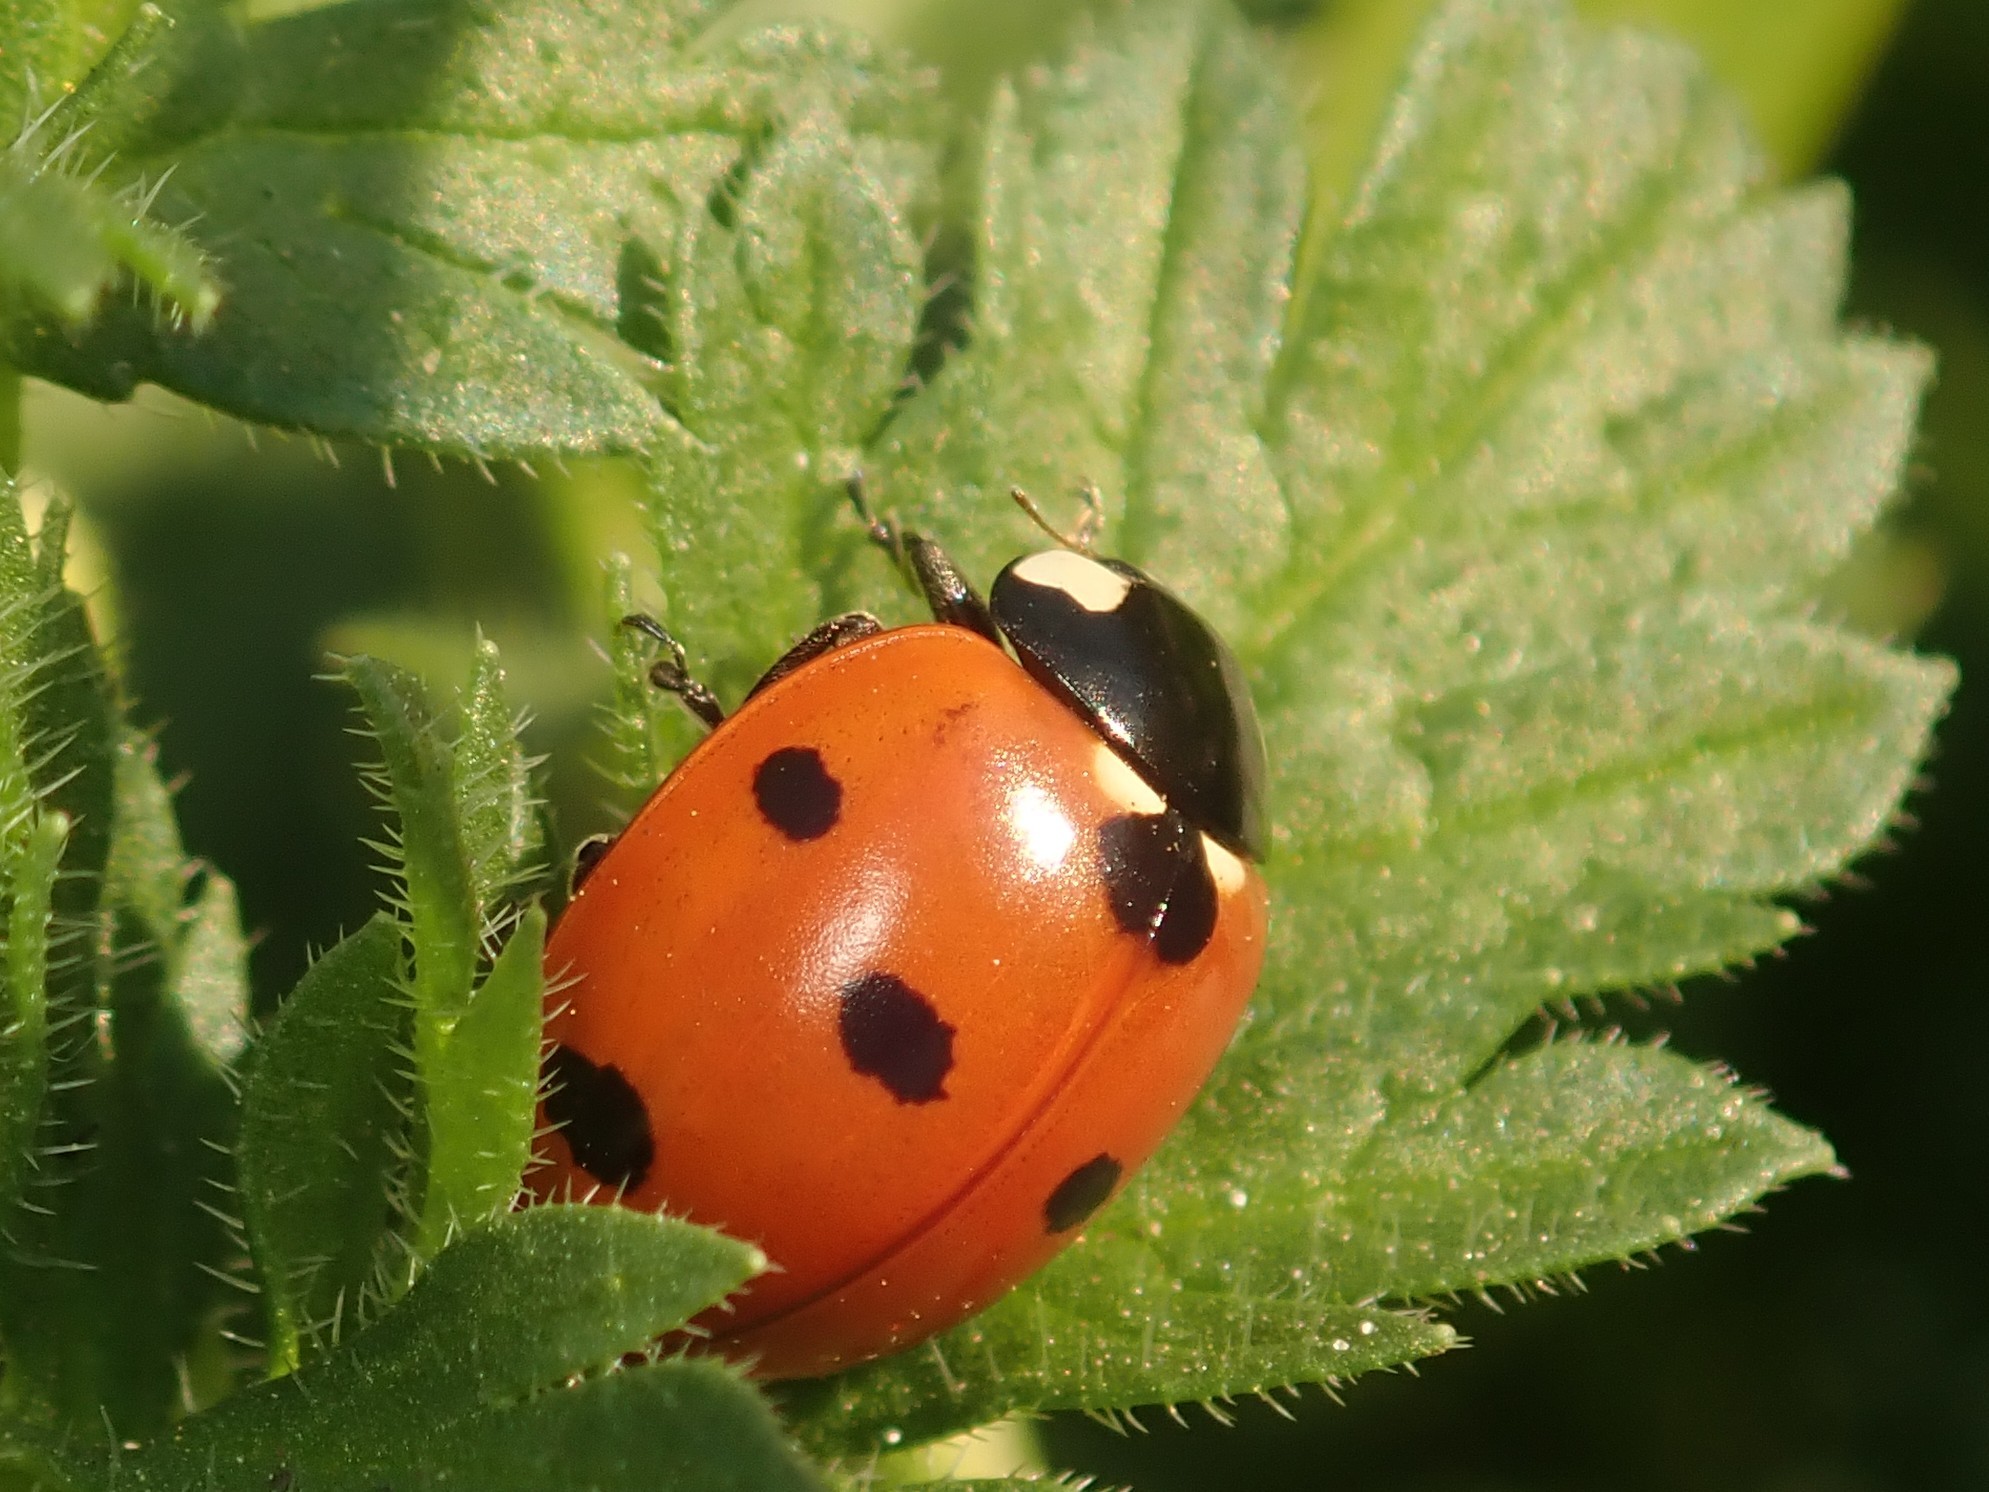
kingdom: Animalia
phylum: Arthropoda
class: Insecta
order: Coleoptera
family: Coccinellidae
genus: Coccinella
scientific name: Coccinella septempunctata
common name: Sevenspotted lady beetle
